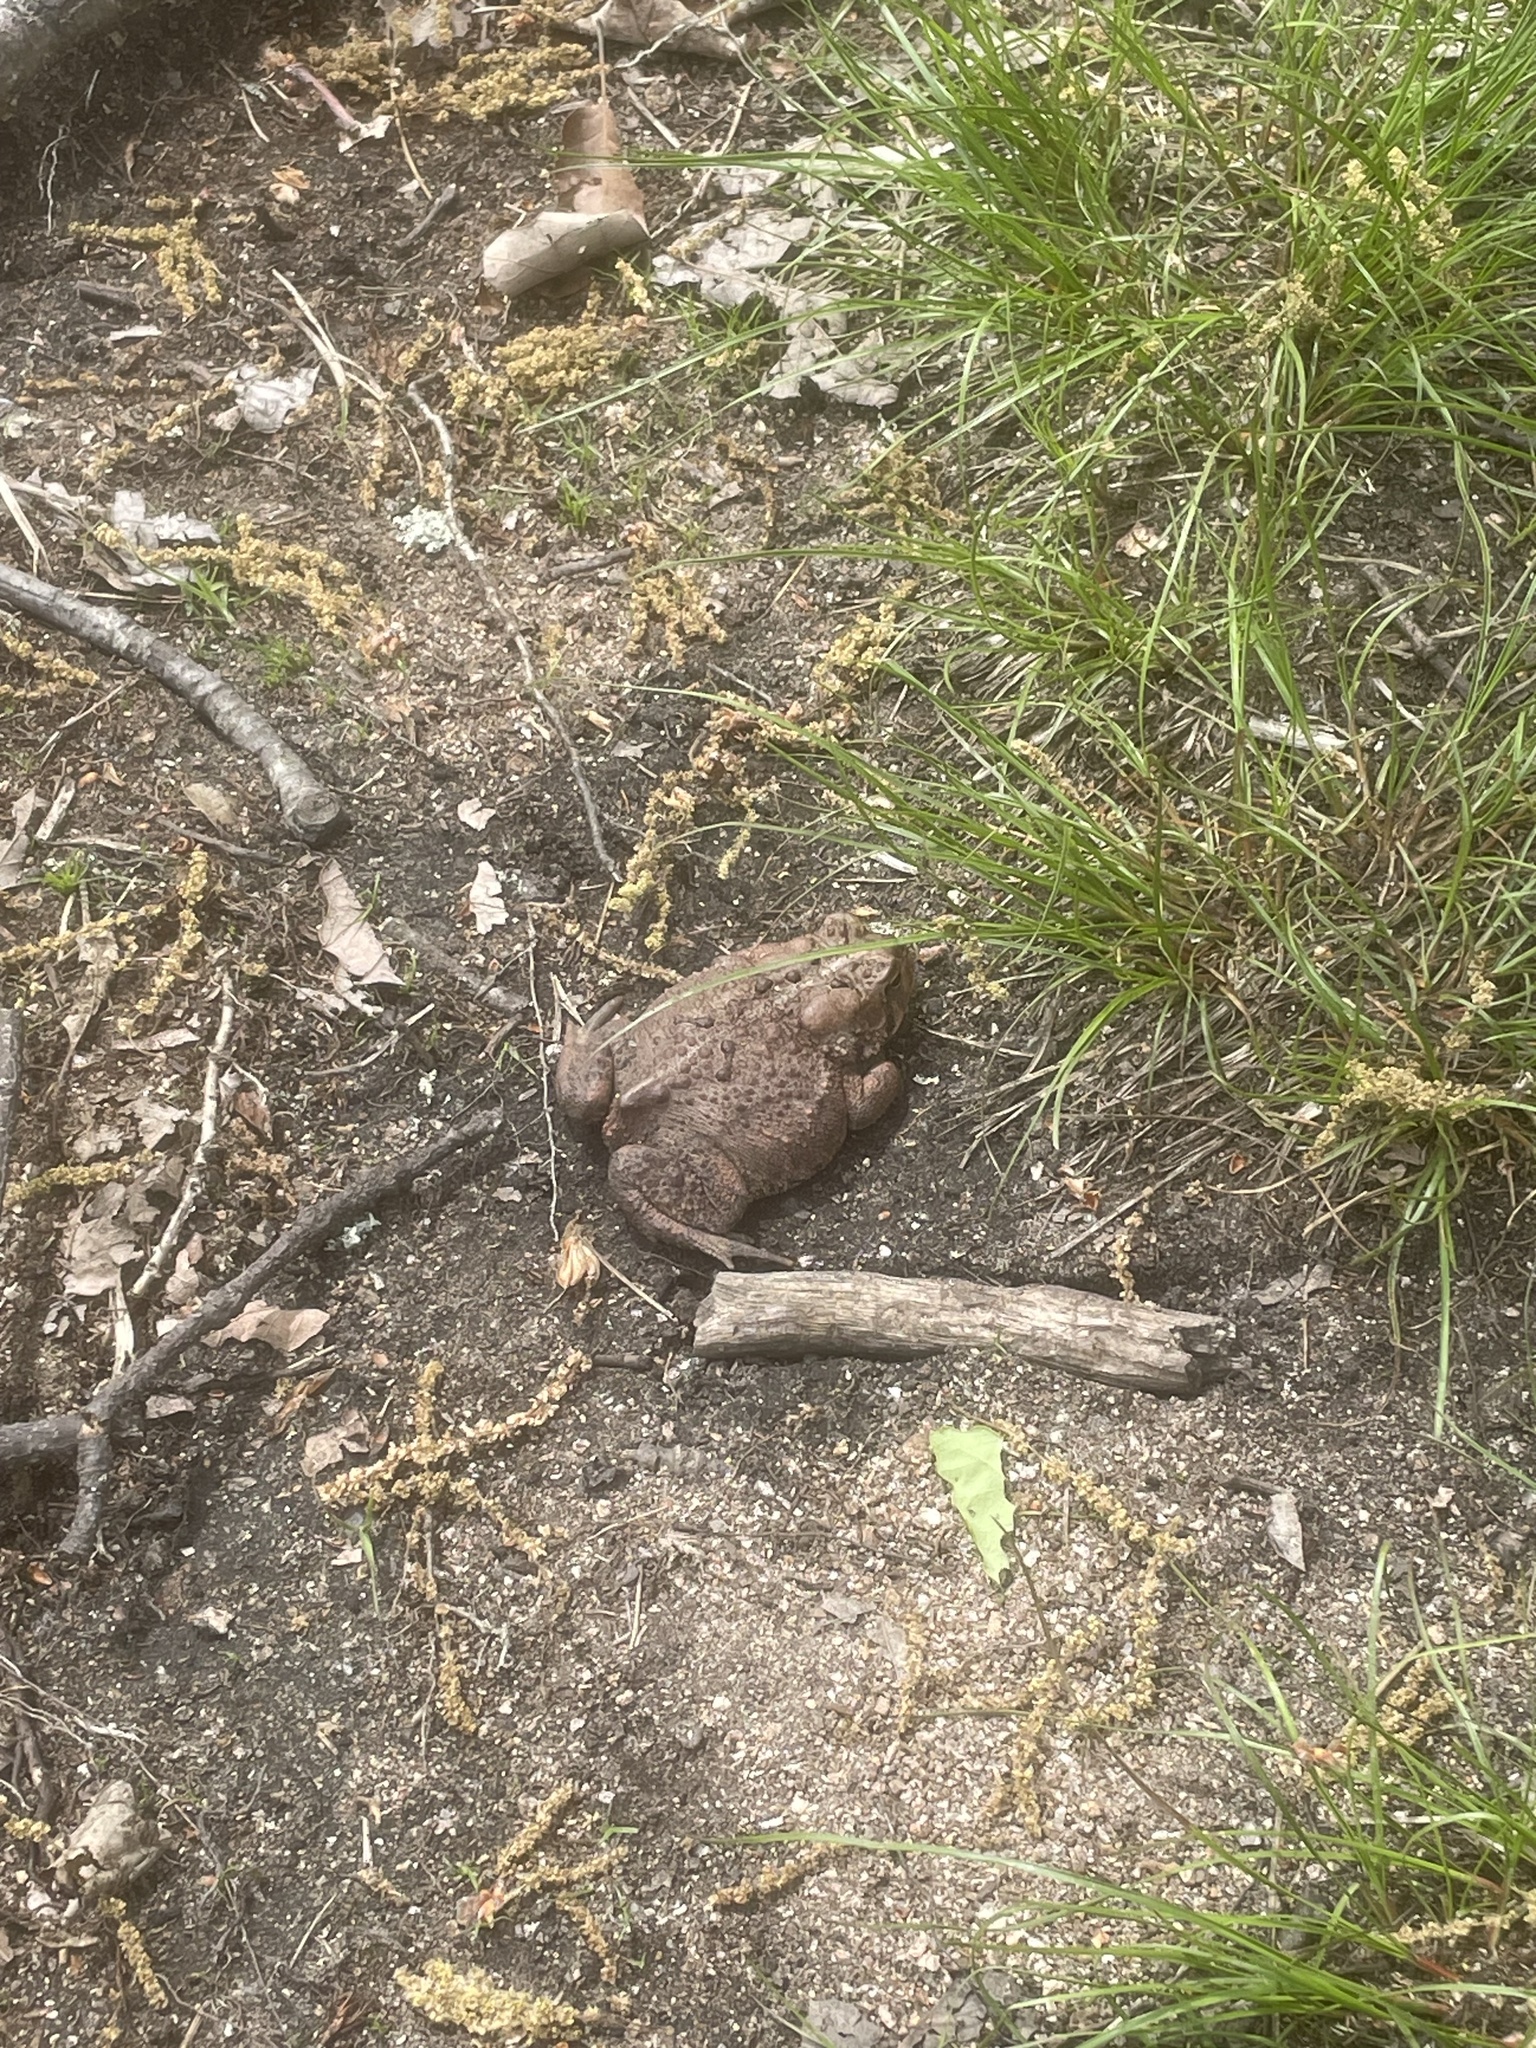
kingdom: Animalia
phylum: Chordata
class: Amphibia
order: Anura
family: Bufonidae
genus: Anaxyrus
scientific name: Anaxyrus americanus
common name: American toad
